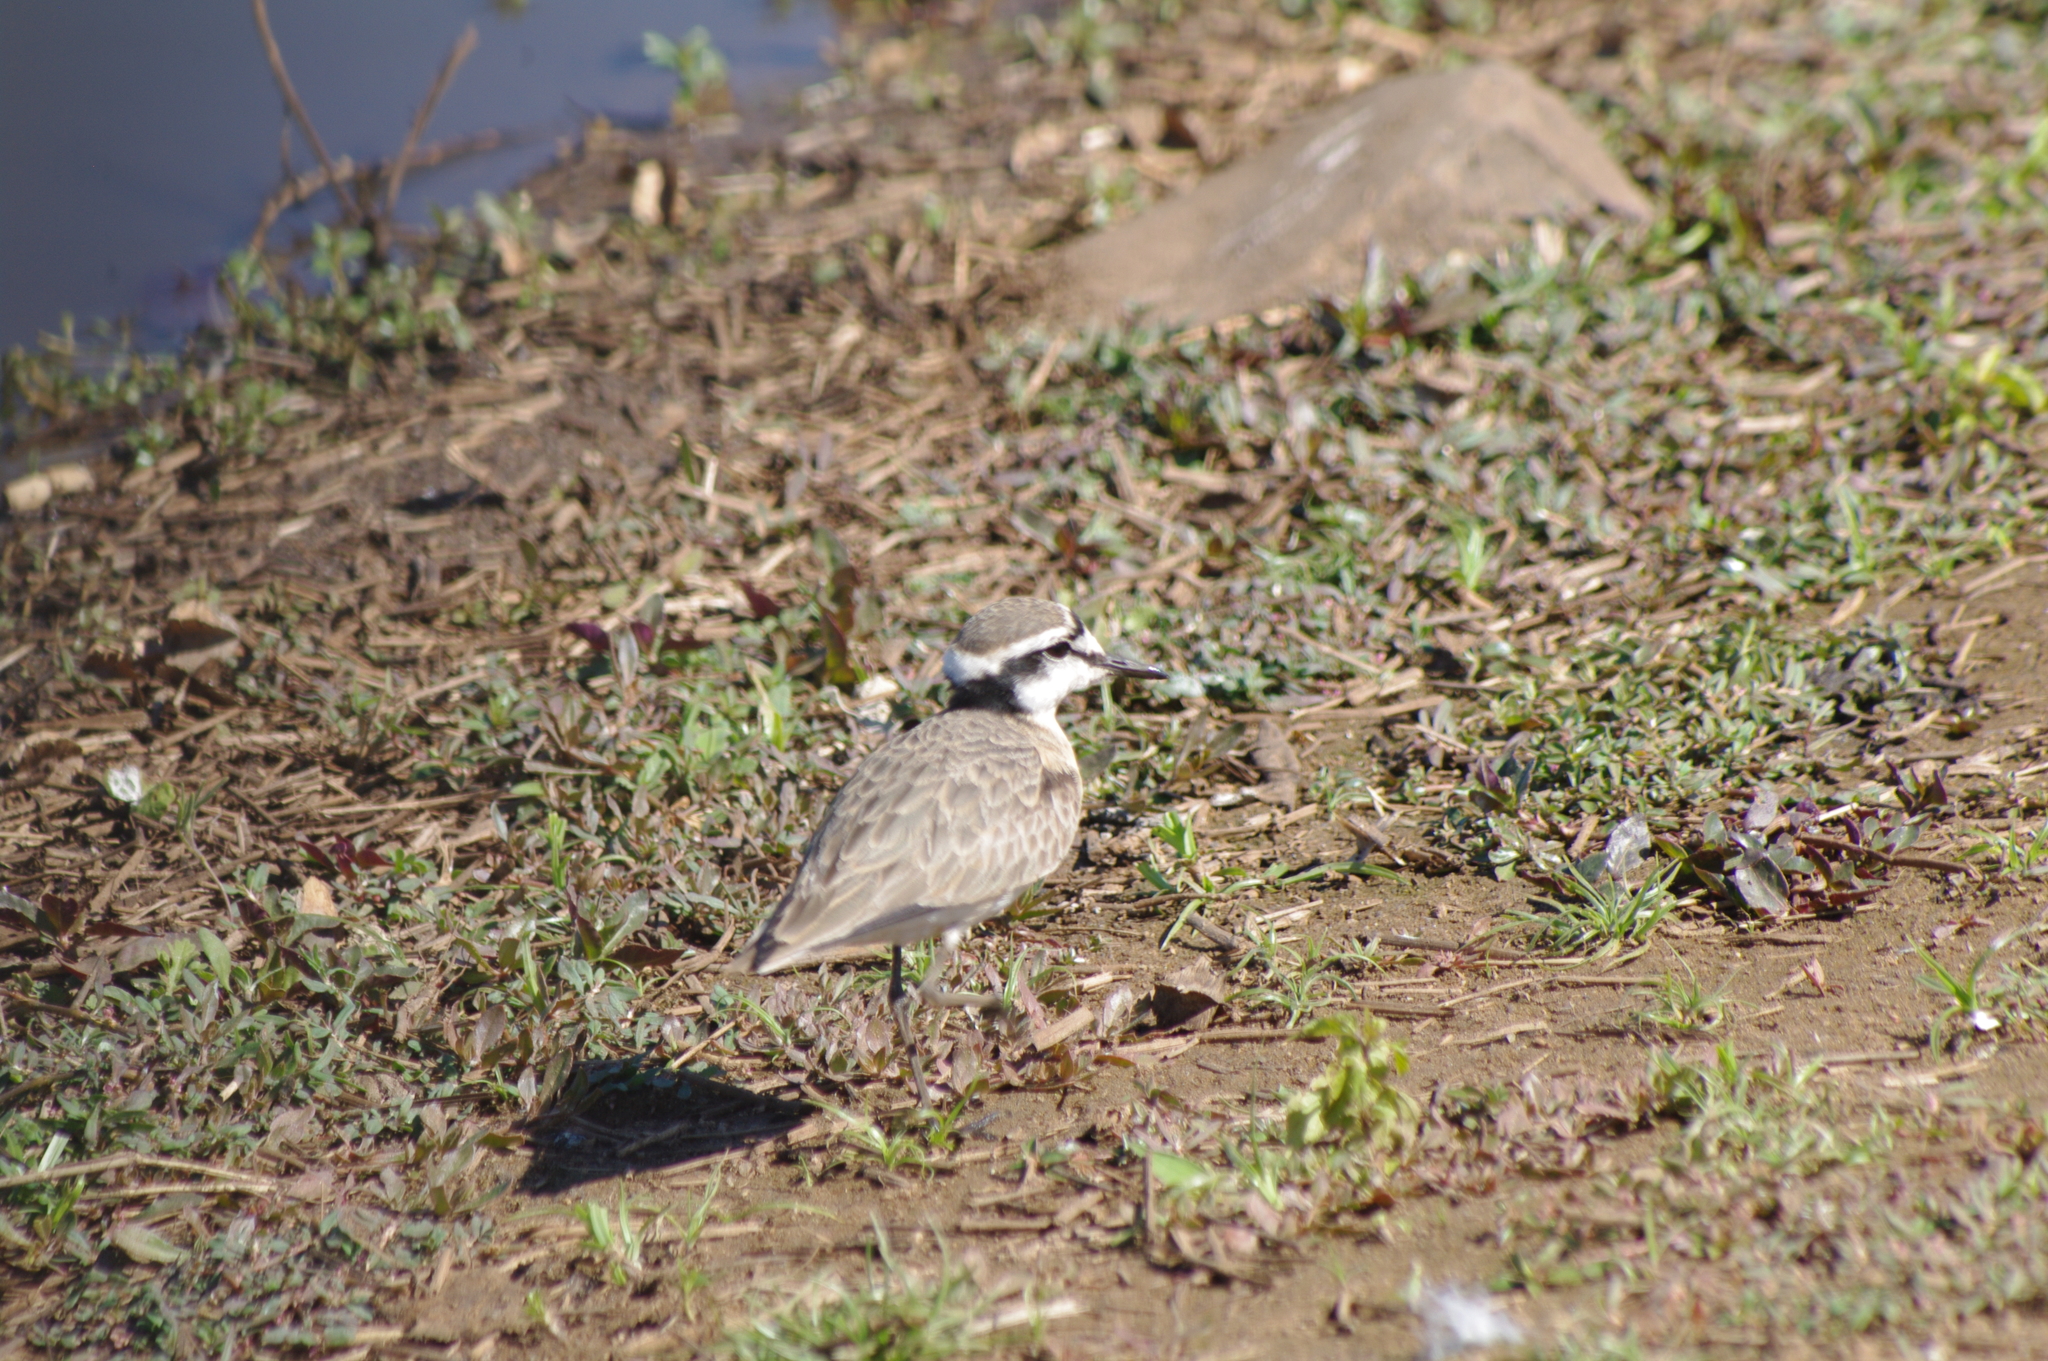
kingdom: Animalia
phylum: Chordata
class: Aves
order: Charadriiformes
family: Charadriidae
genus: Anarhynchus
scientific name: Anarhynchus
